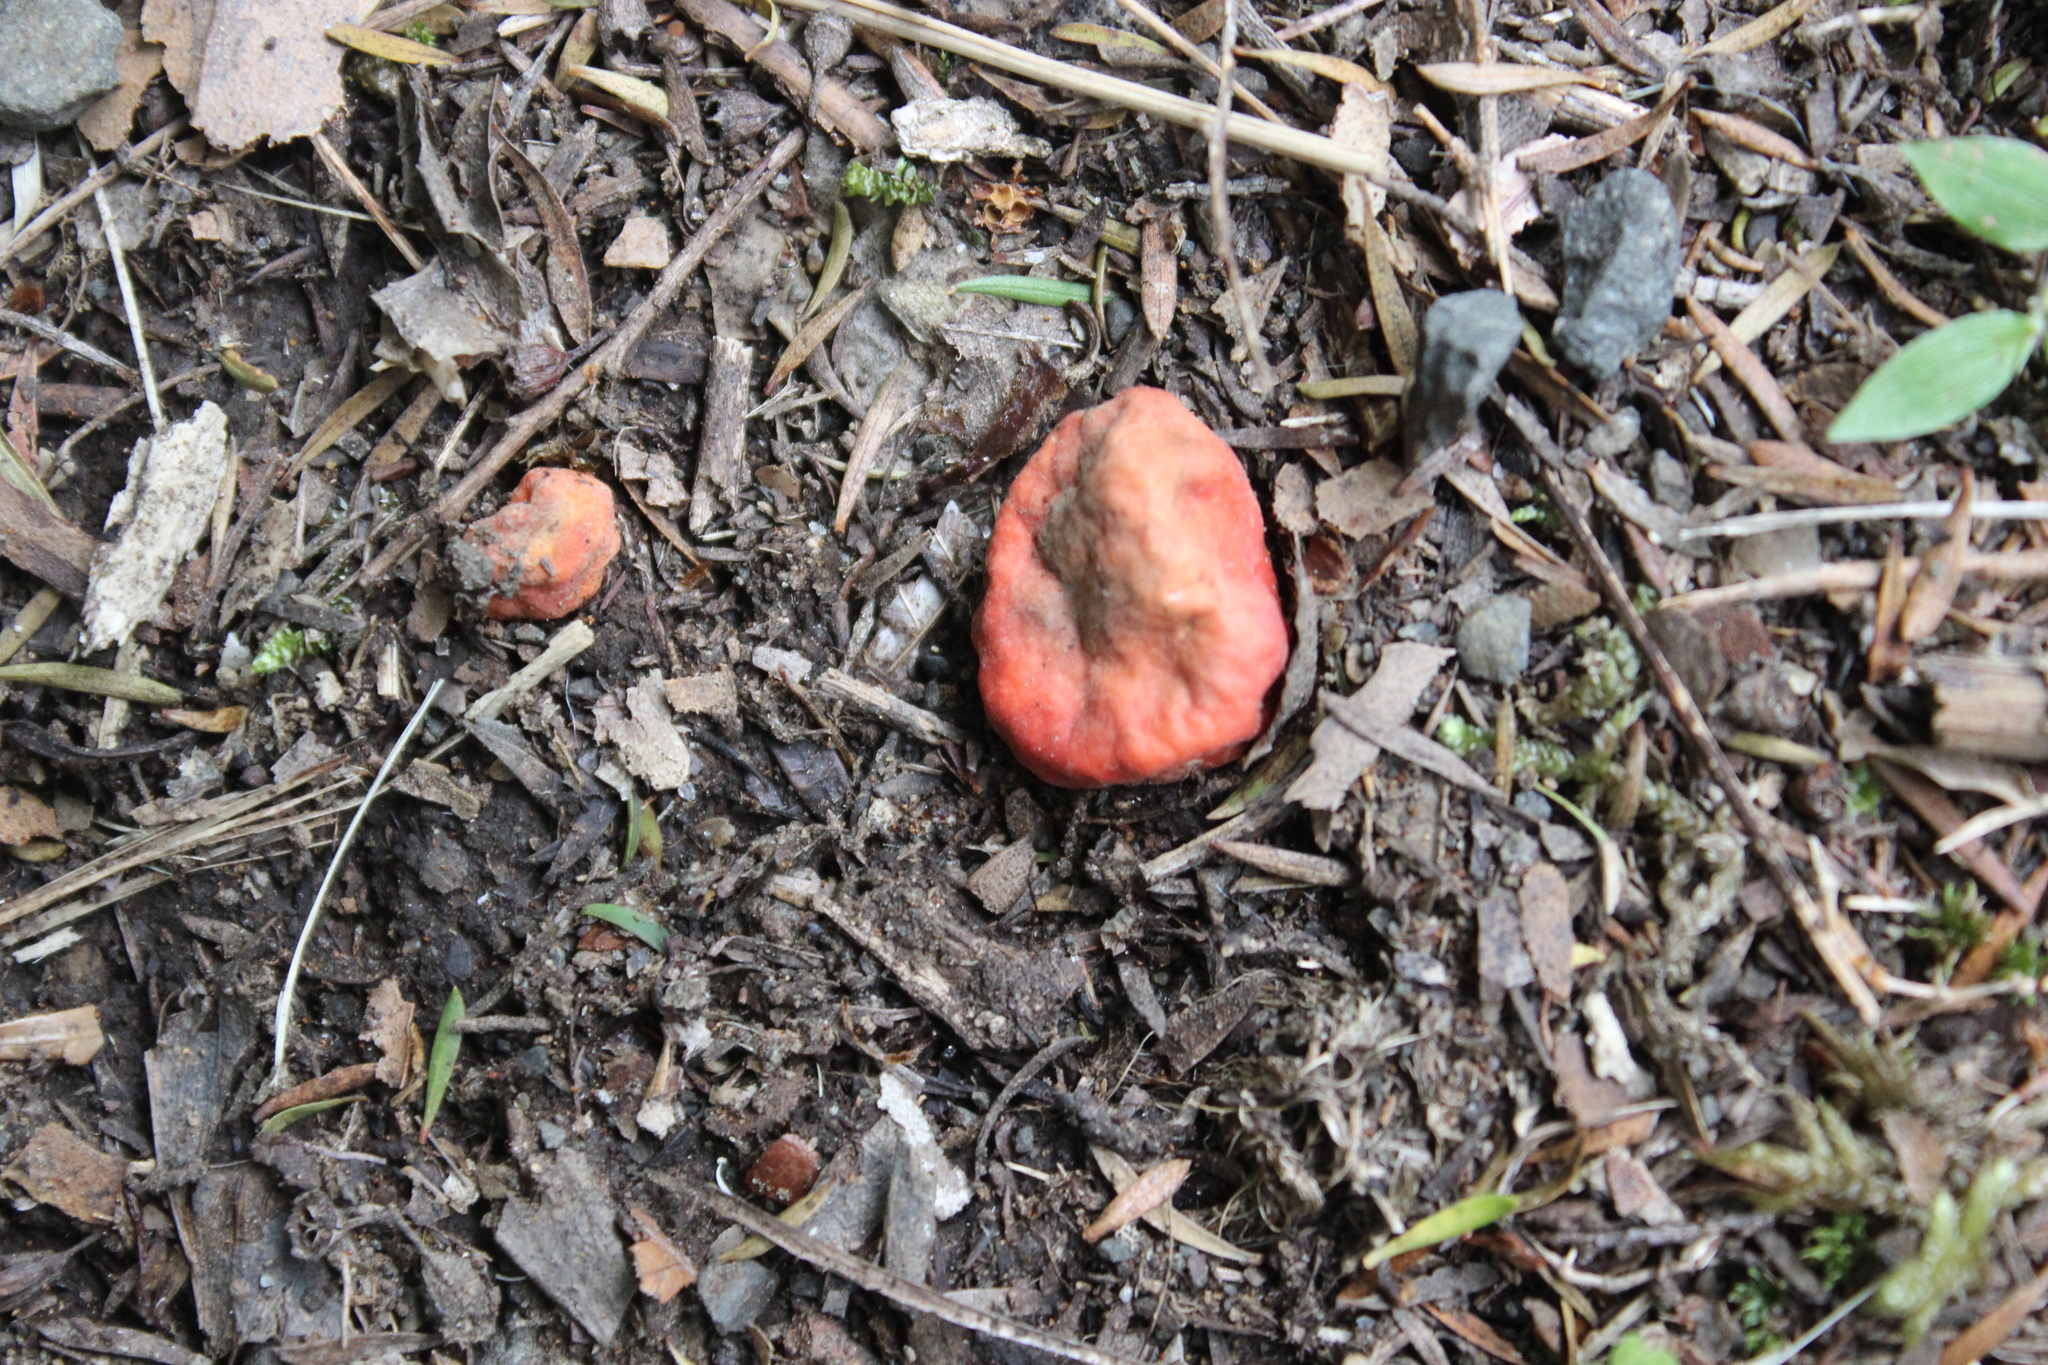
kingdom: Fungi
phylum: Ascomycota
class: Pezizomycetes
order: Pezizales
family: Pyronemataceae
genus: Paurocotylis
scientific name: Paurocotylis pila
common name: Scarlet berry truffle
